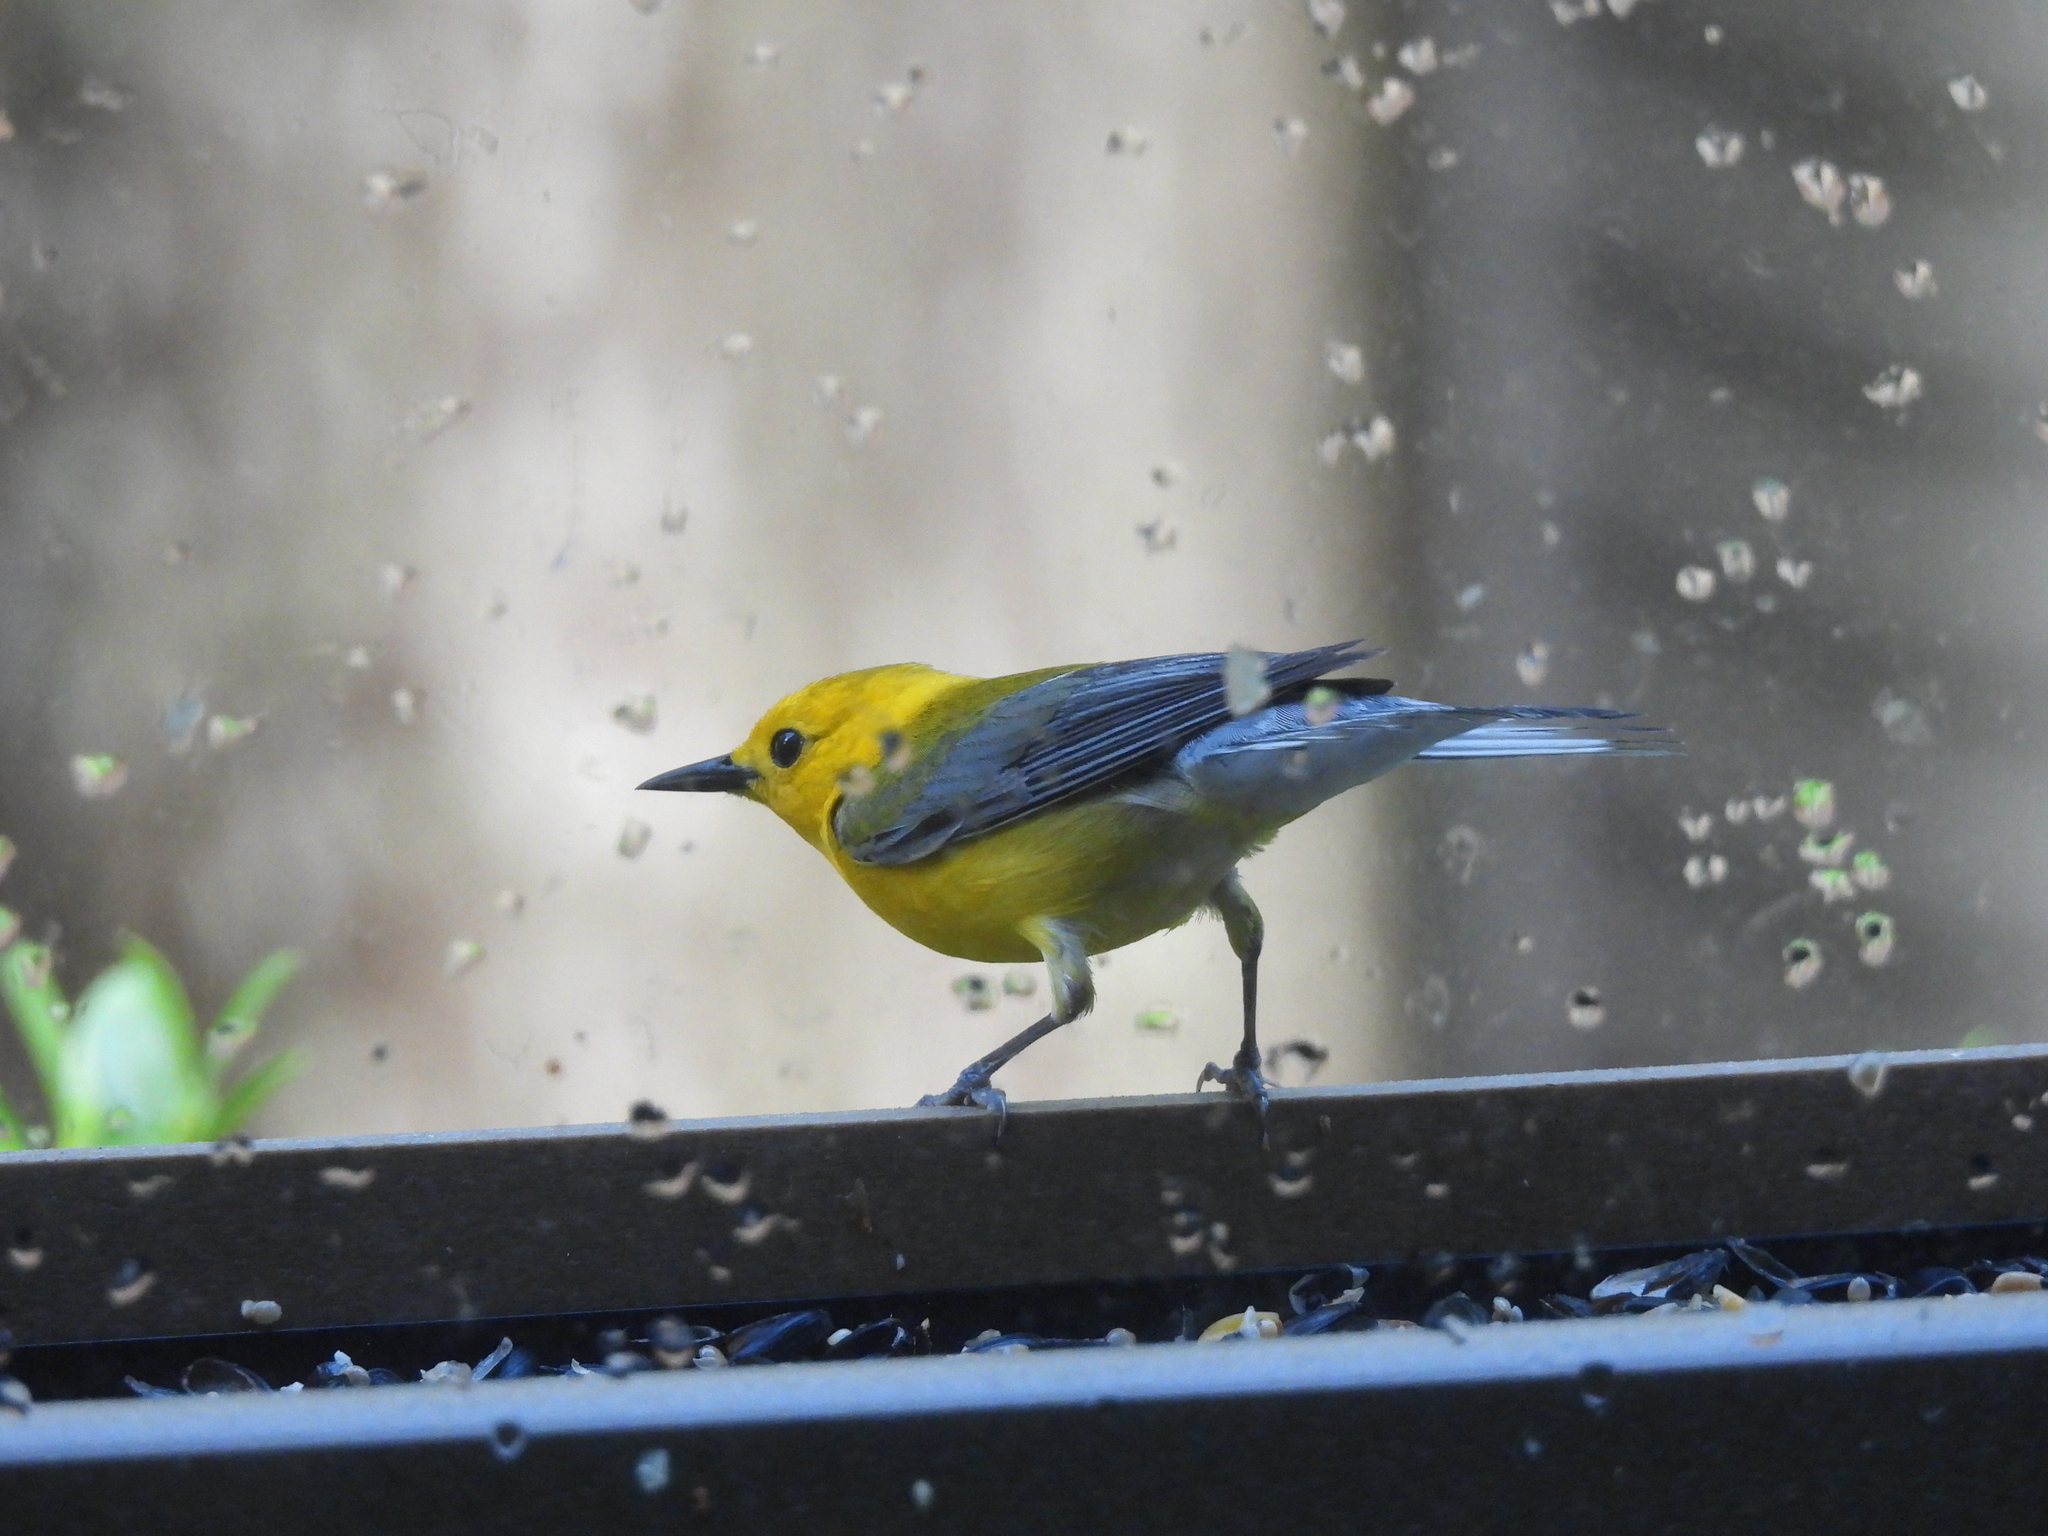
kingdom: Animalia
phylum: Chordata
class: Aves
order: Passeriformes
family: Parulidae
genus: Protonotaria
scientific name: Protonotaria citrea
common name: Prothonotary warbler
